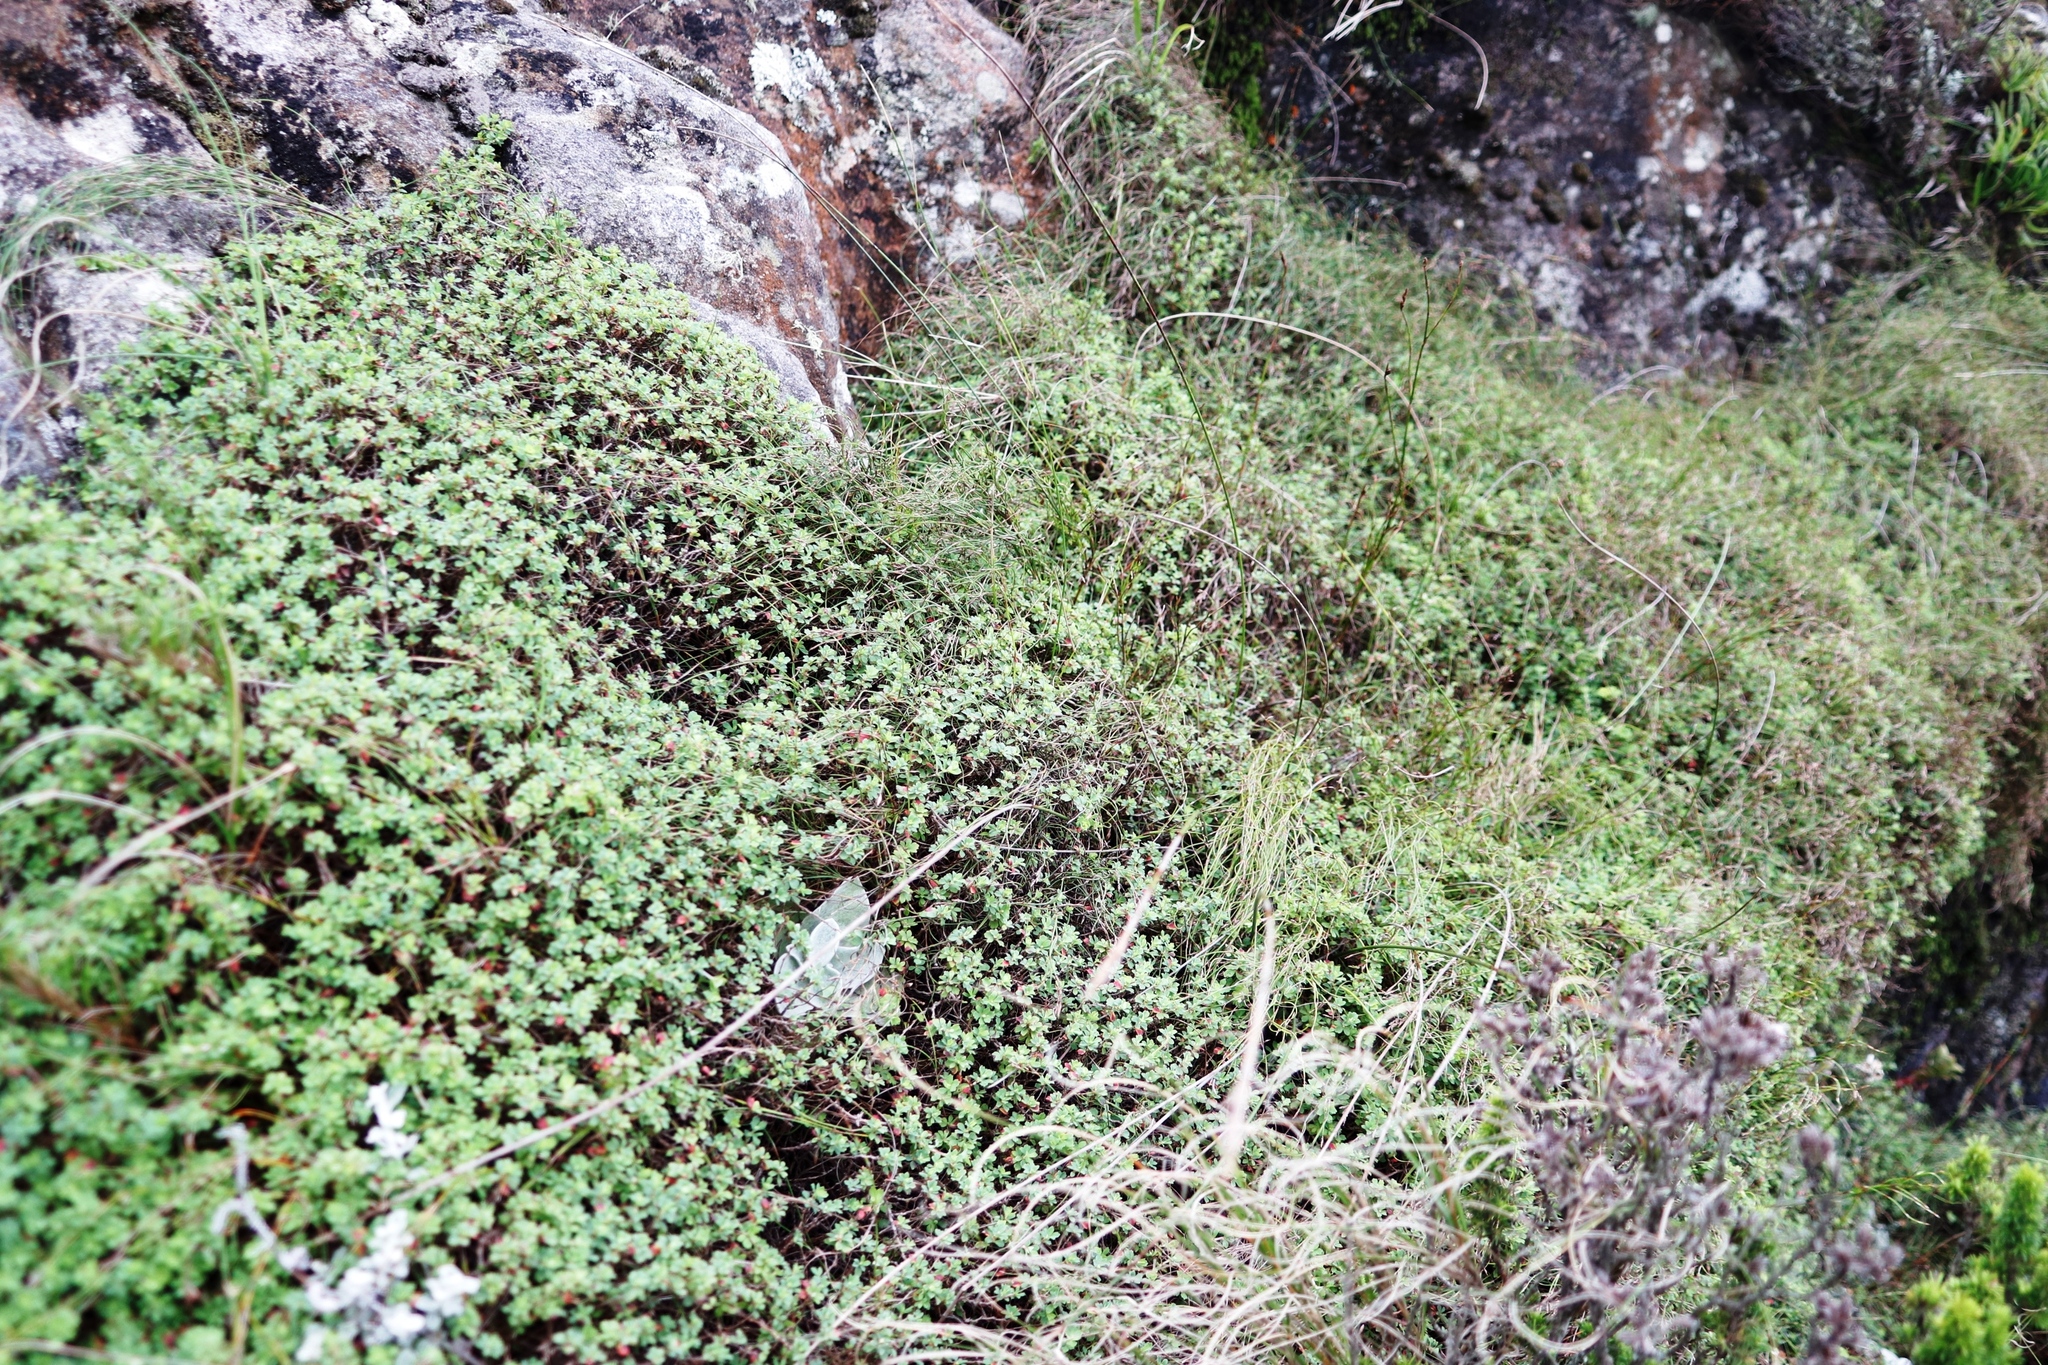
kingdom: Plantae
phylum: Tracheophyta
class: Magnoliopsida
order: Rosales
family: Rosaceae
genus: Cliffortia
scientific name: Cliffortia dentata
